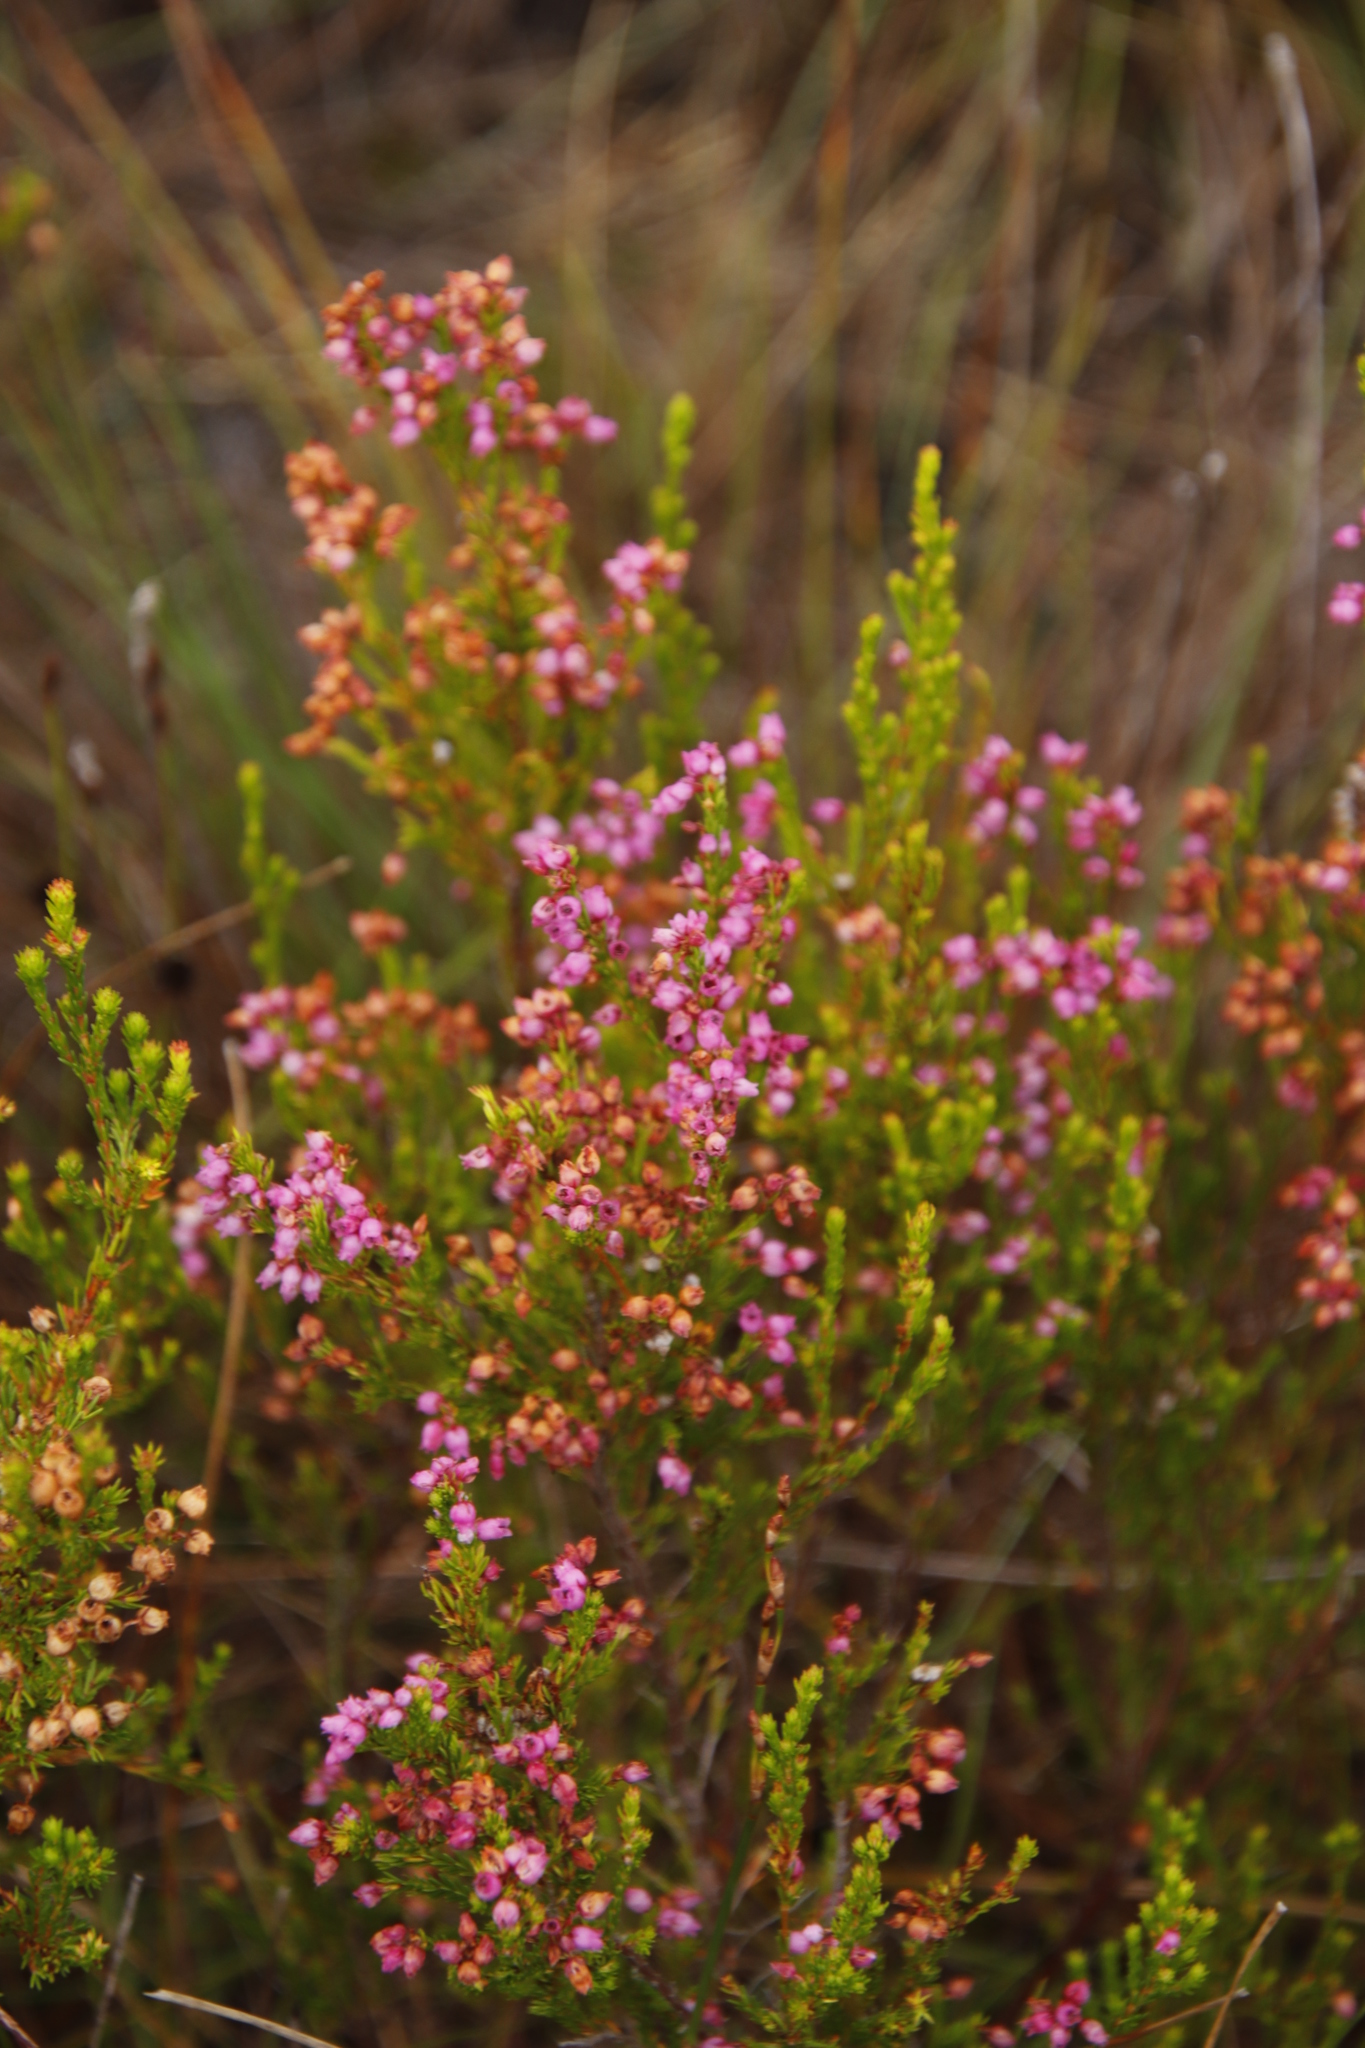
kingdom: Plantae
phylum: Tracheophyta
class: Magnoliopsida
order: Ericales
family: Ericaceae
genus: Erica
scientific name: Erica laeta
